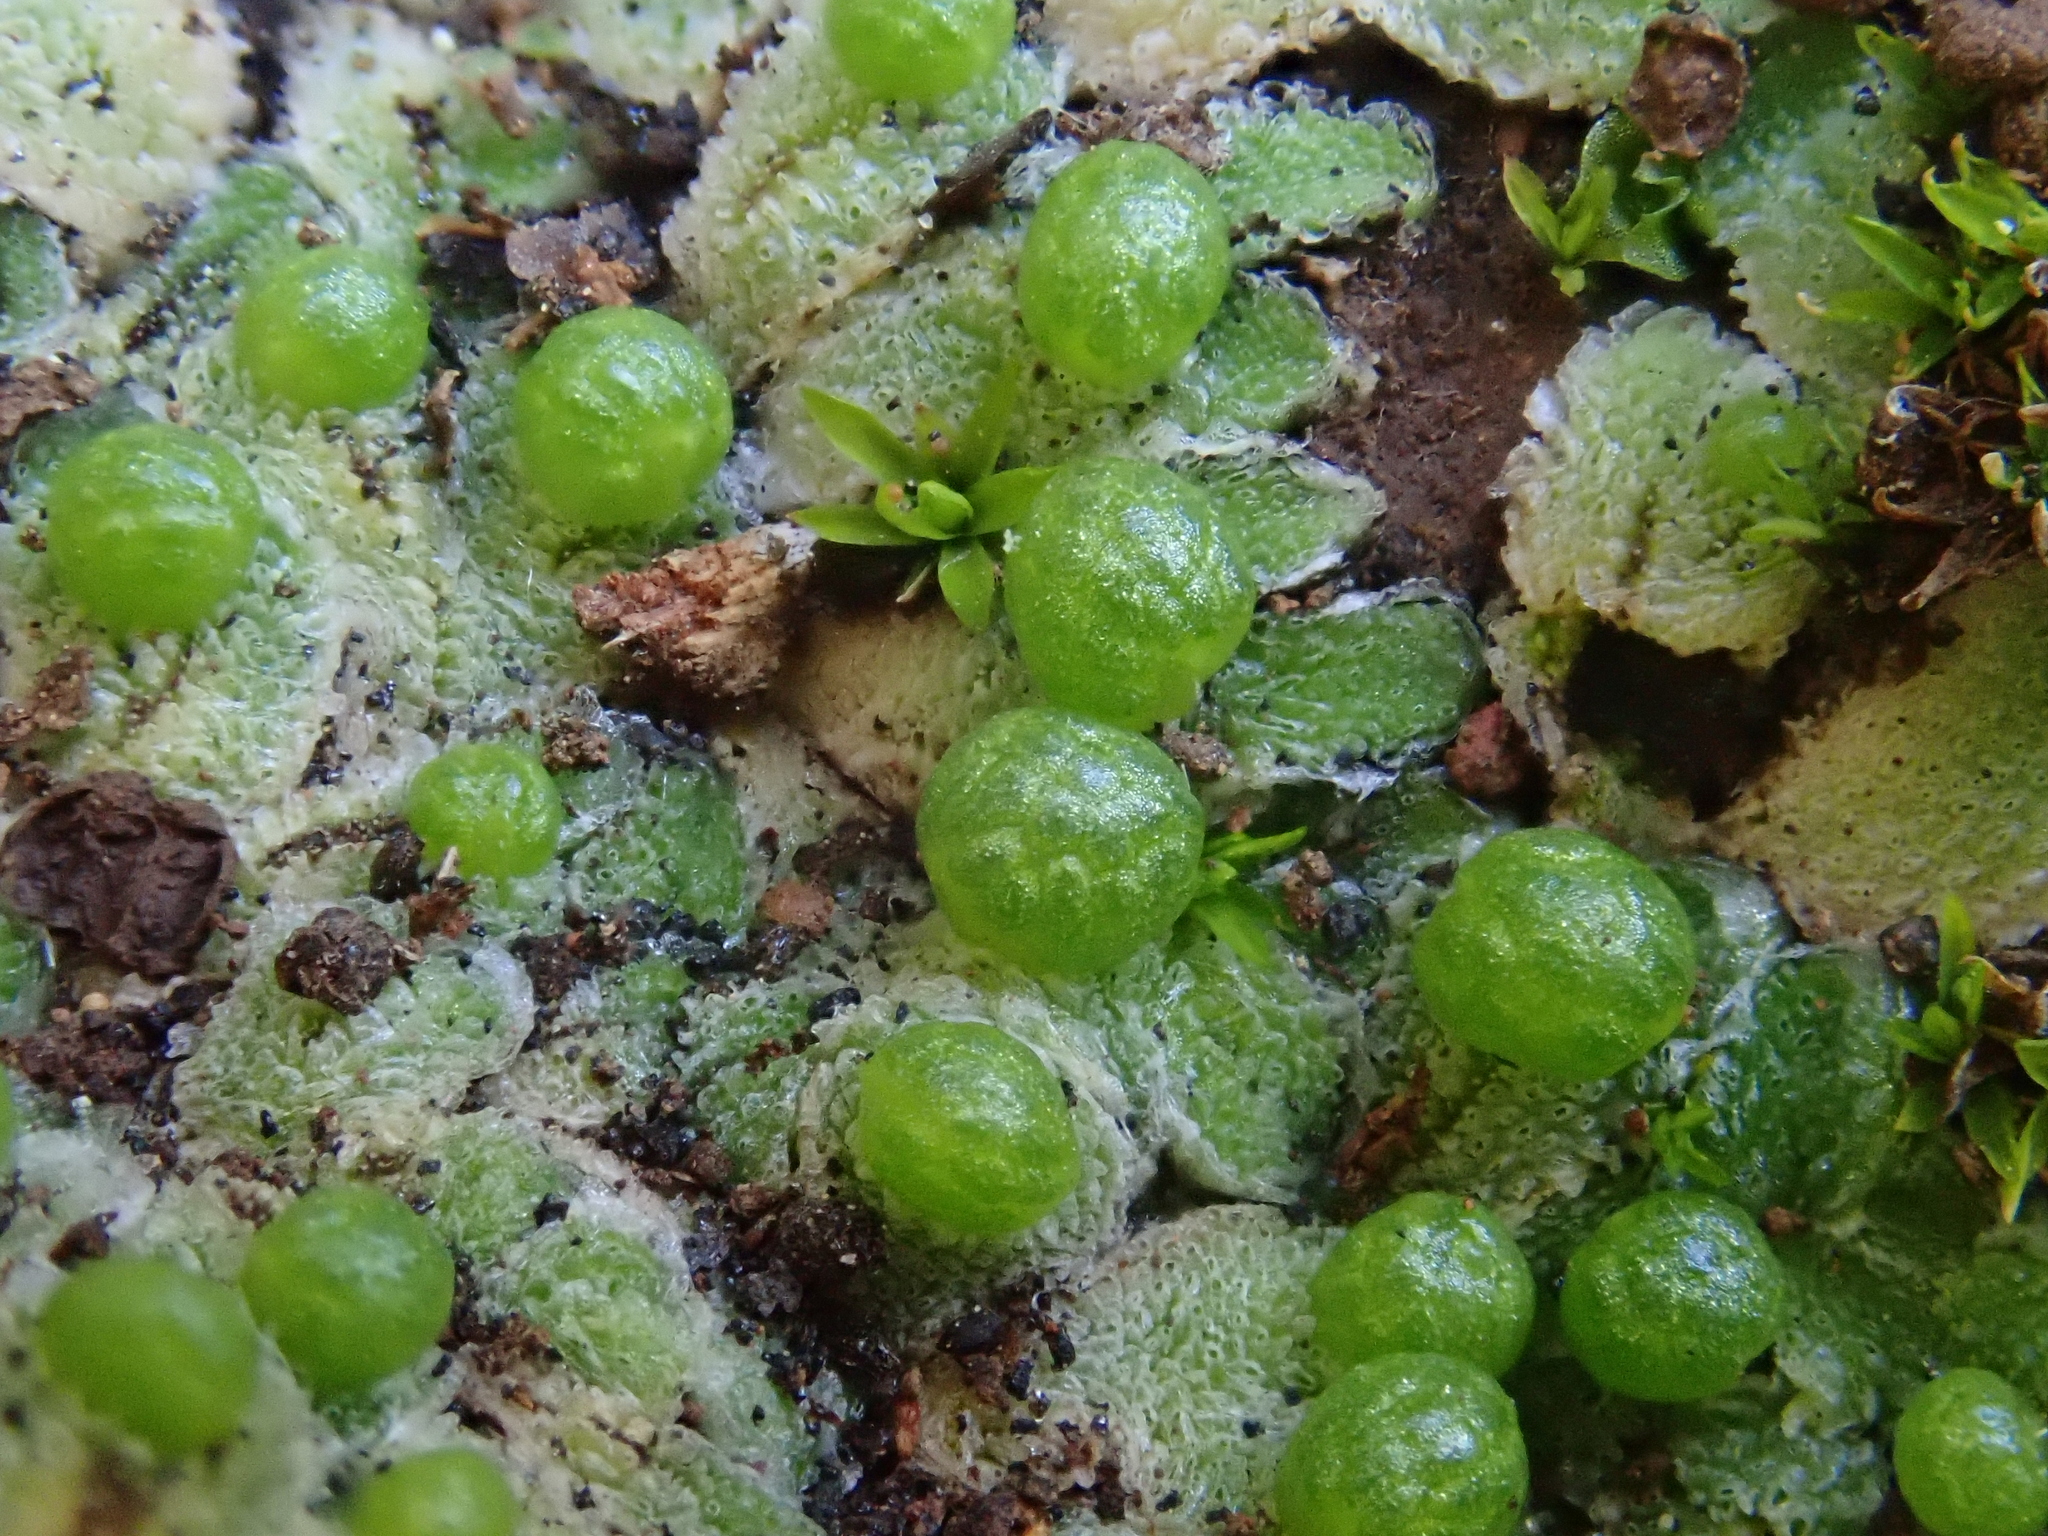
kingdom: Plantae
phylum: Marchantiophyta
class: Marchantiopsida
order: Marchantiales
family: Corsiniaceae
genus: Exormotheca
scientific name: Exormotheca pustulosa
